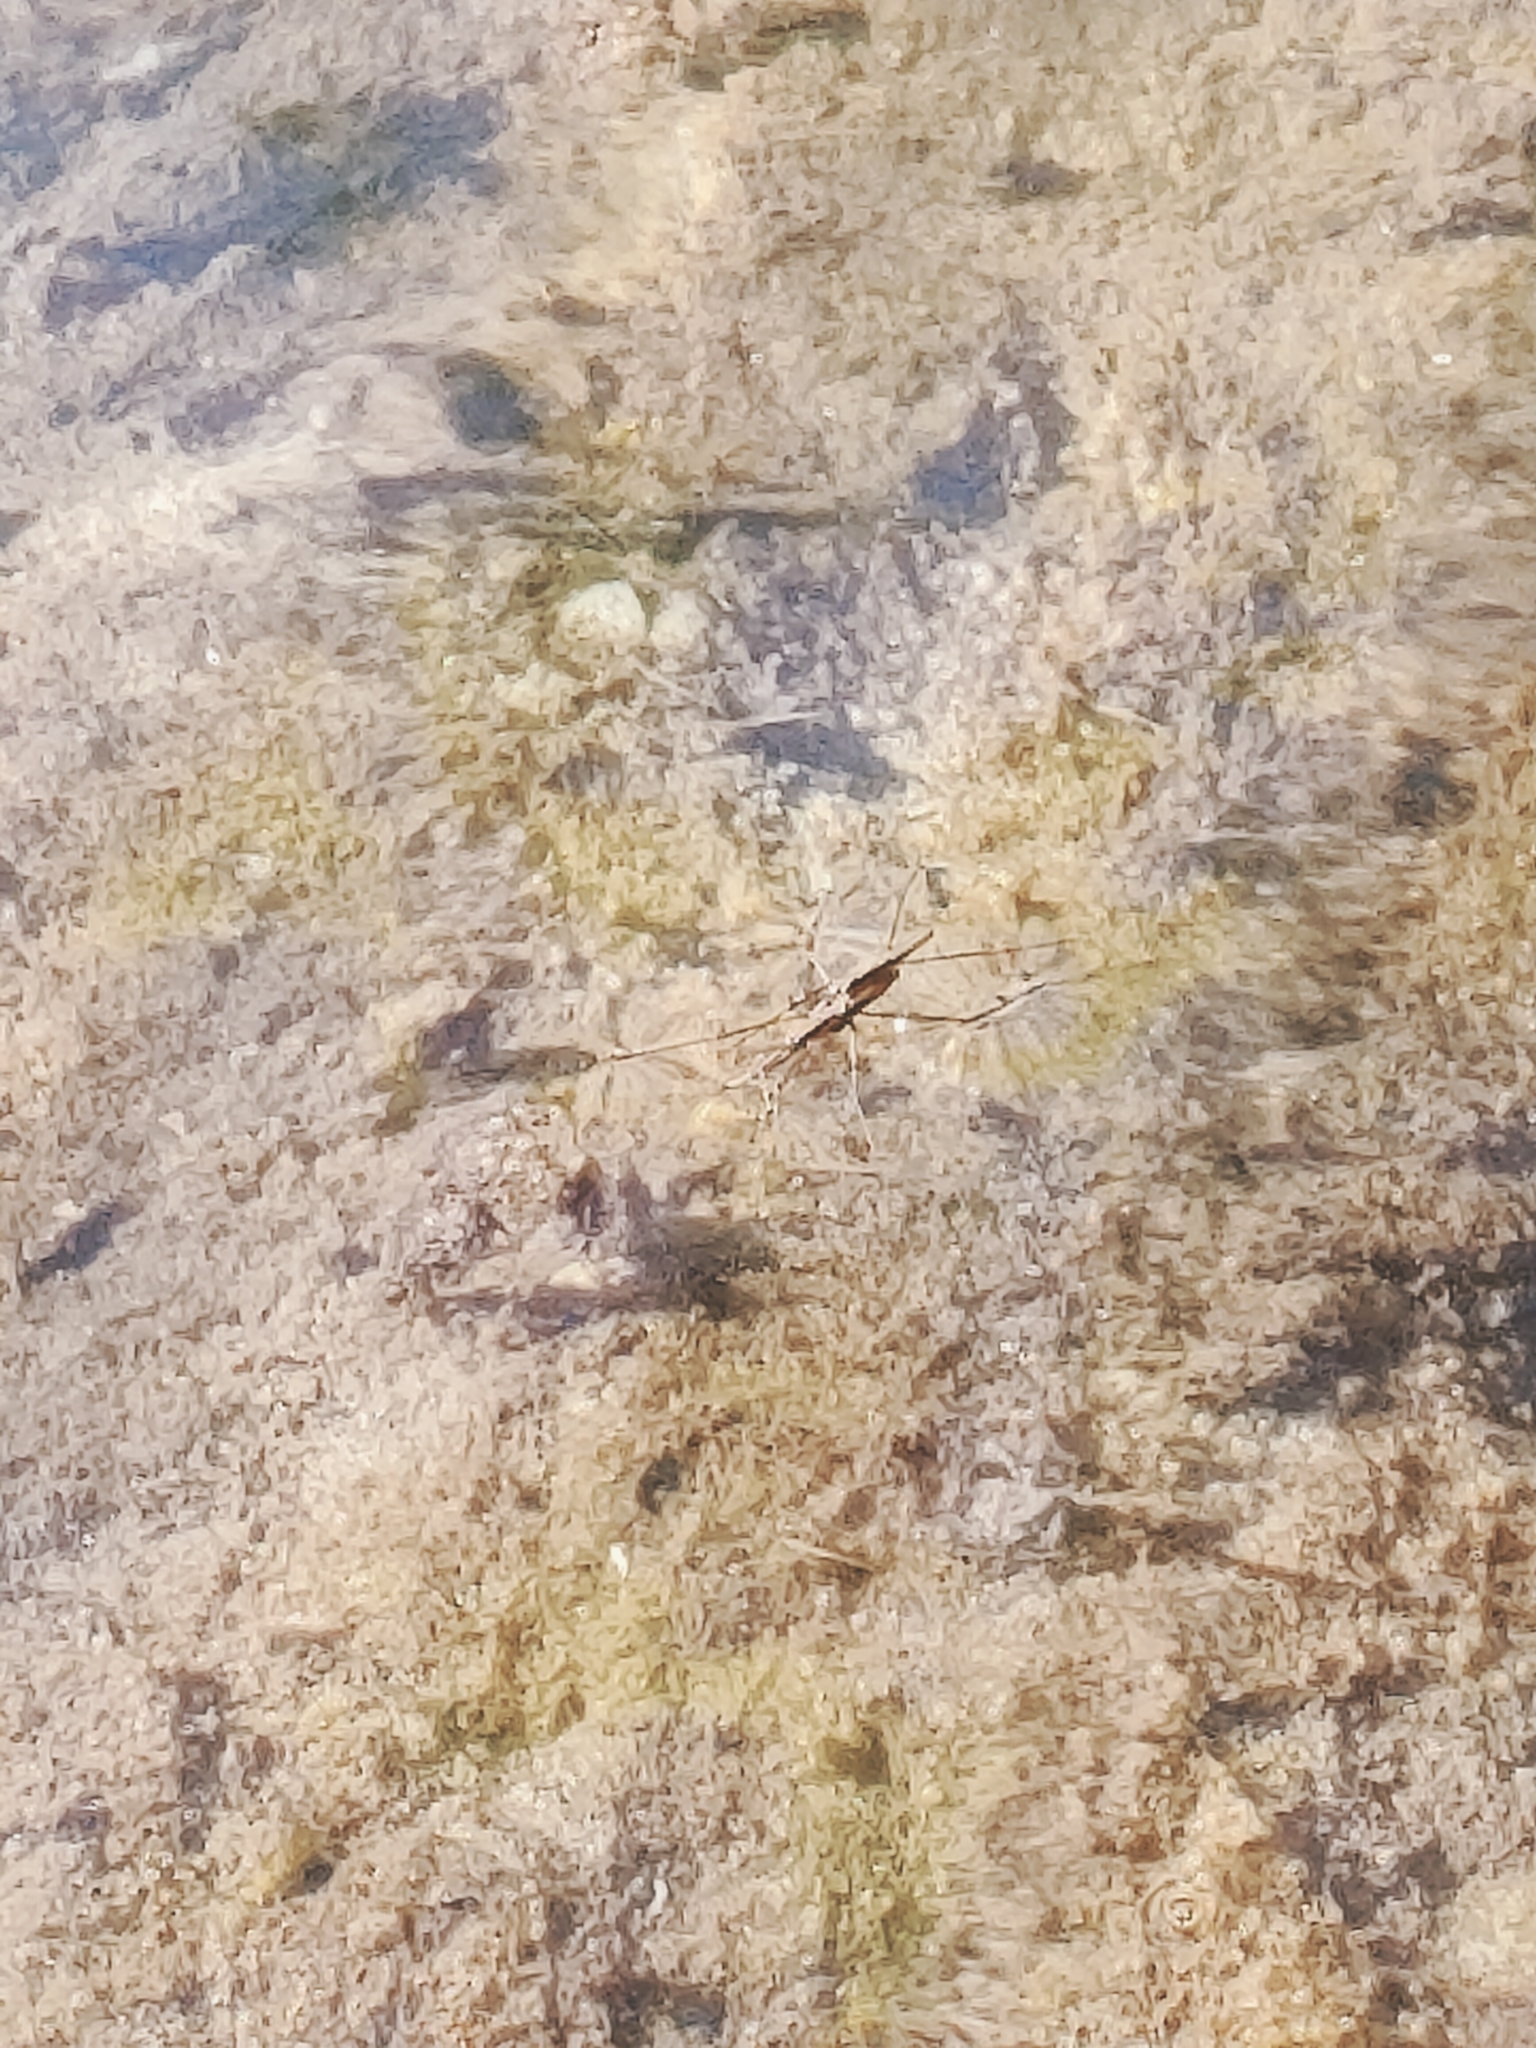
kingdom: Animalia
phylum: Arthropoda
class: Insecta
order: Hemiptera
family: Gerridae
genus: Aquarius
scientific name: Aquarius najas
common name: River skater
